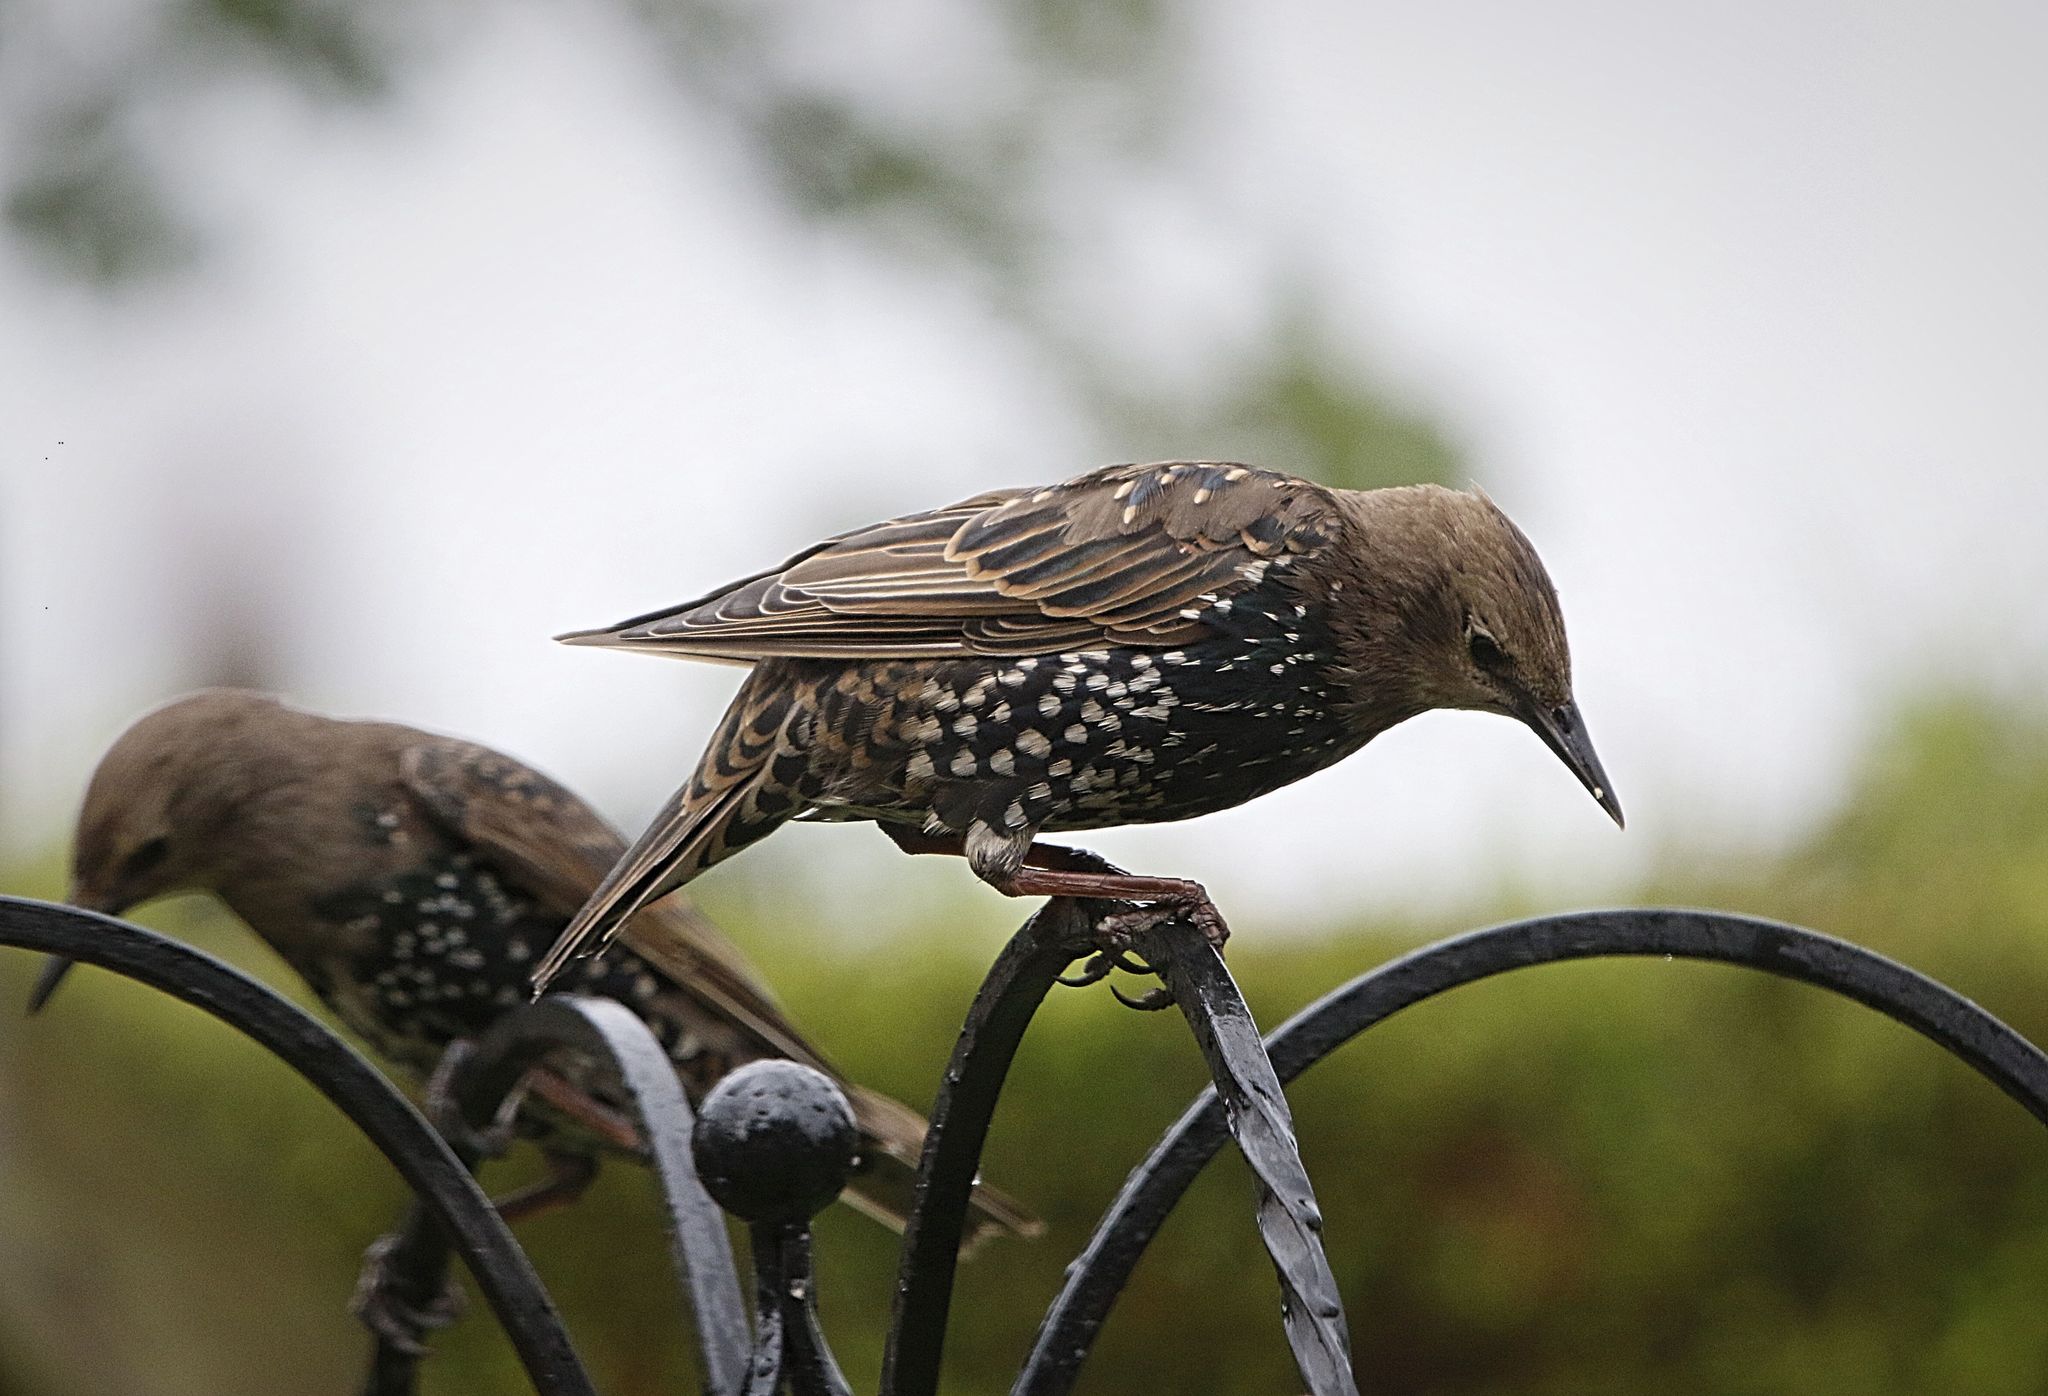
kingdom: Animalia
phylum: Chordata
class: Aves
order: Passeriformes
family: Sturnidae
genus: Sturnus
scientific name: Sturnus vulgaris
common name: Common starling
